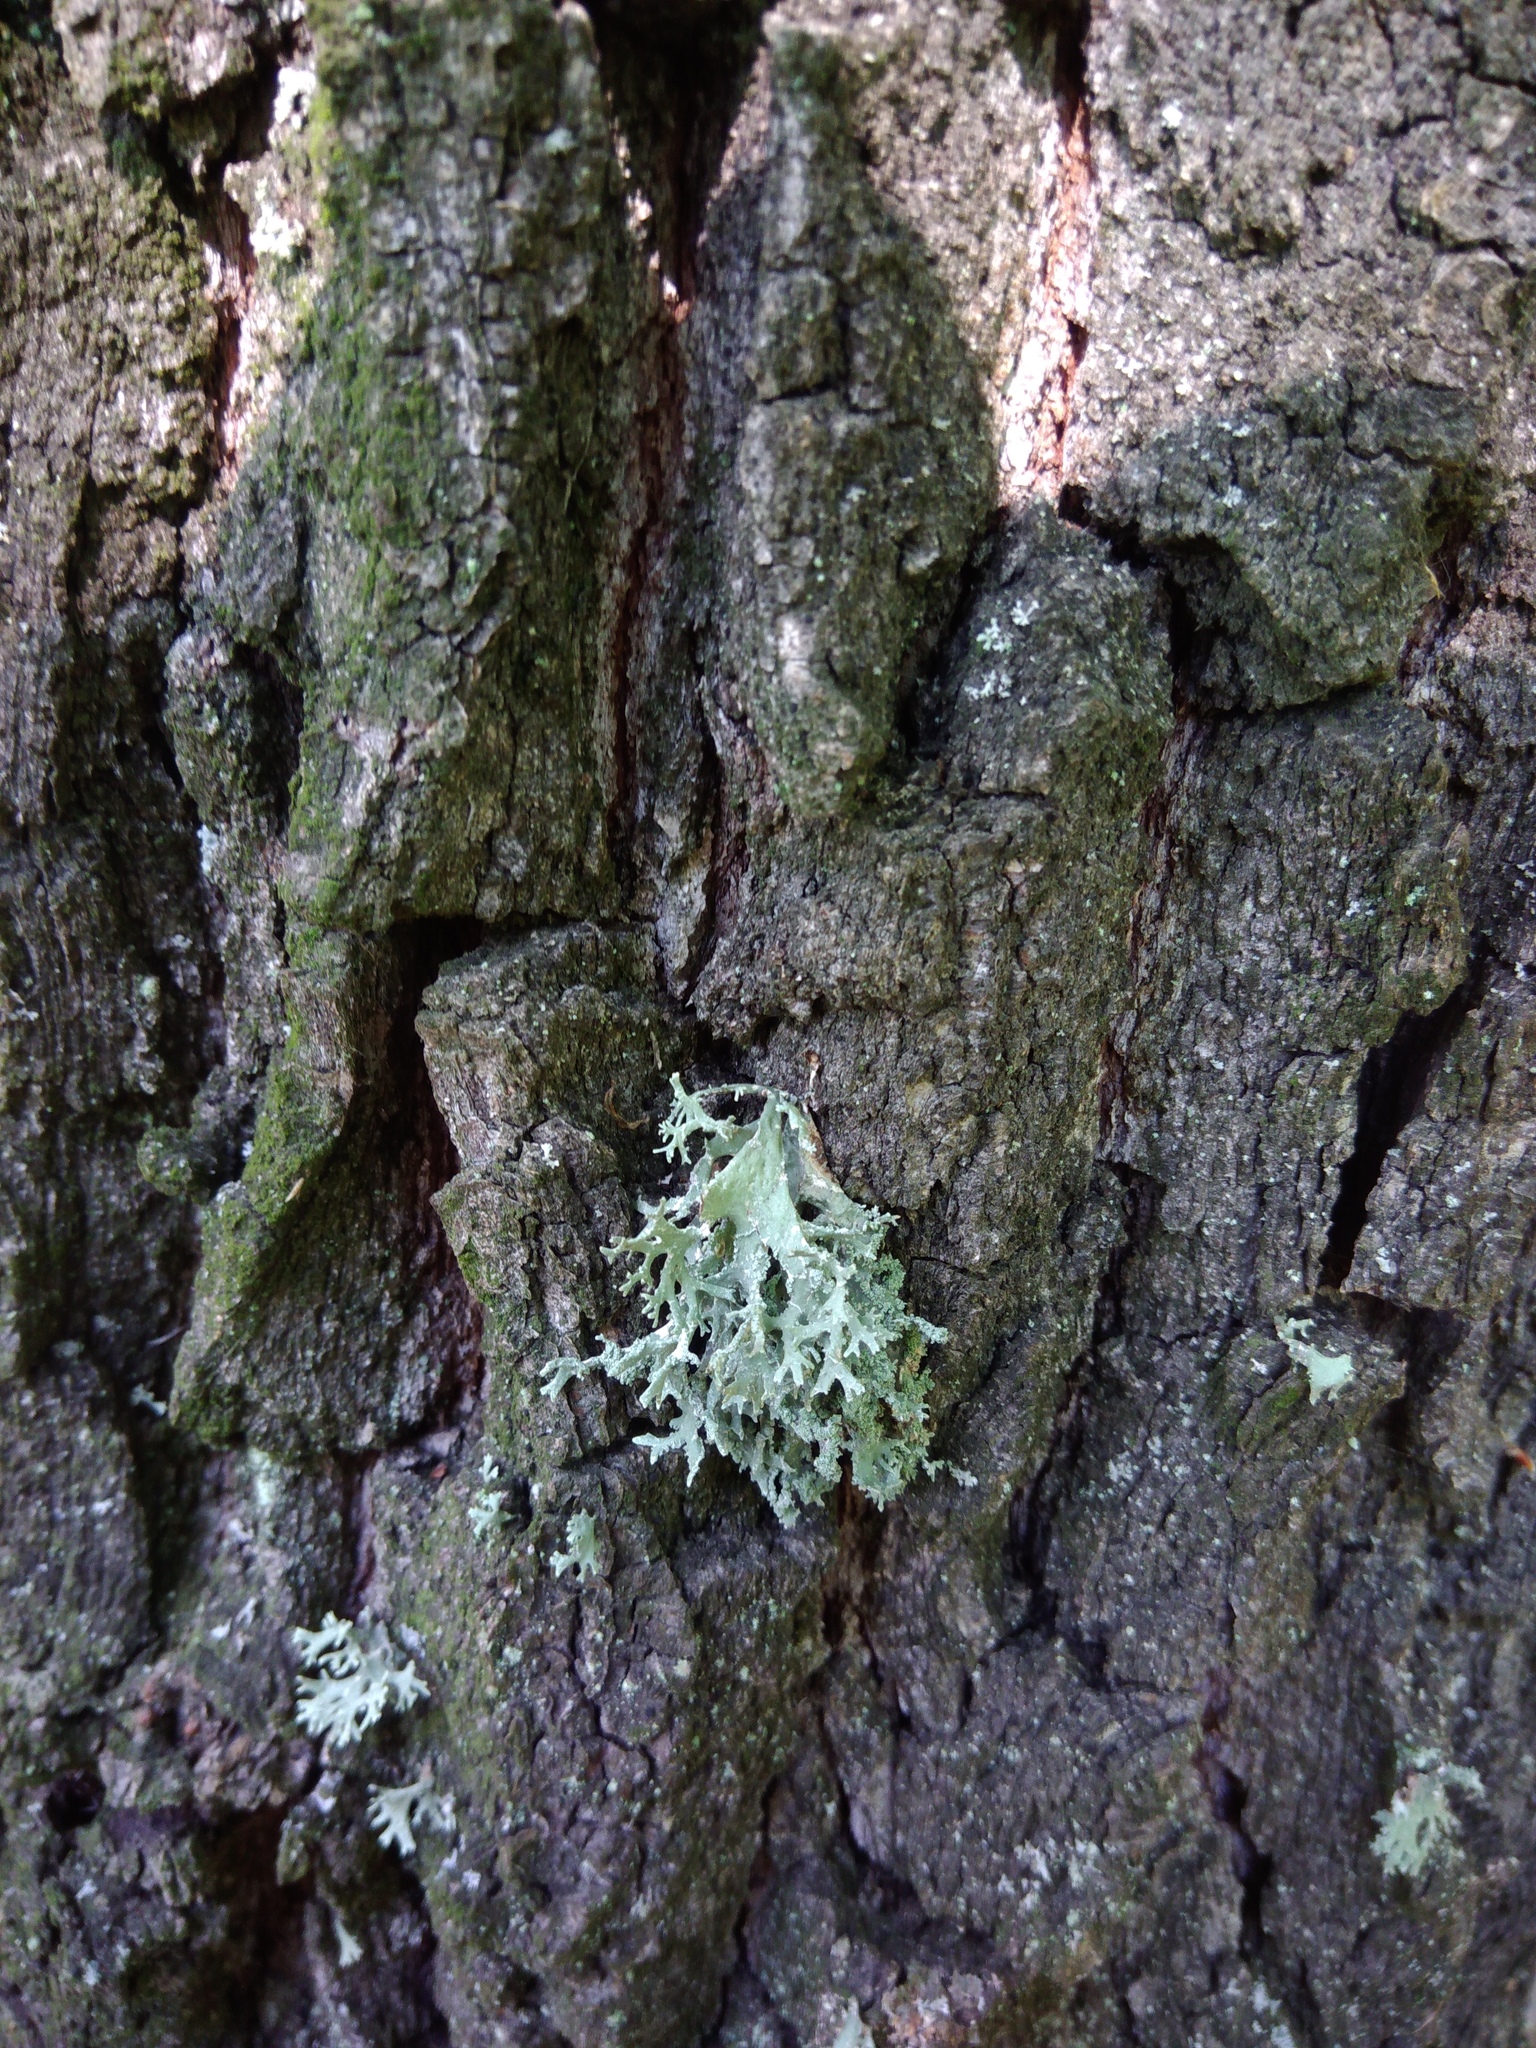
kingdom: Fungi
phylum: Ascomycota
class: Lecanoromycetes
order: Lecanorales
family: Parmeliaceae
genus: Evernia
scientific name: Evernia prunastri
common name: Oak moss
